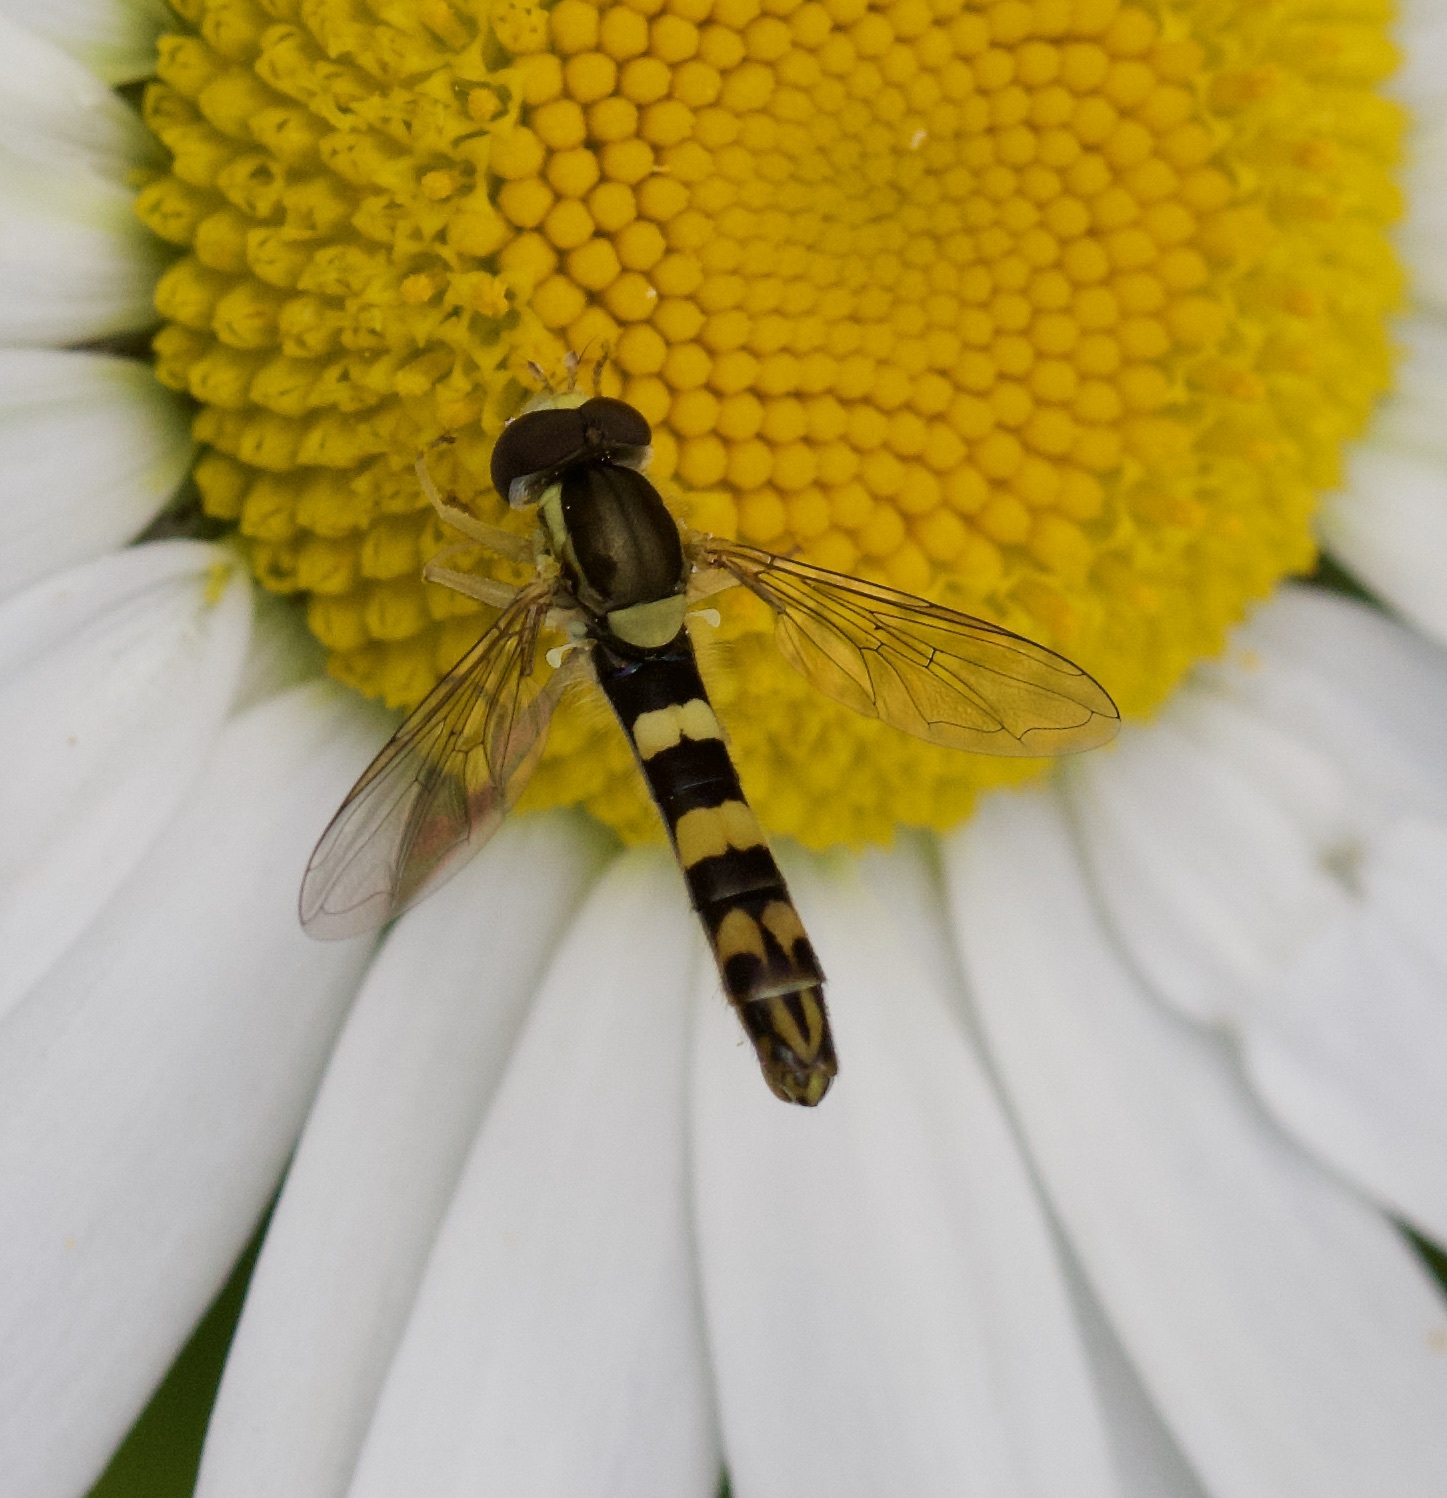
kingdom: Animalia
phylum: Arthropoda
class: Insecta
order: Diptera
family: Syrphidae
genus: Sphaerophoria
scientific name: Sphaerophoria scripta
